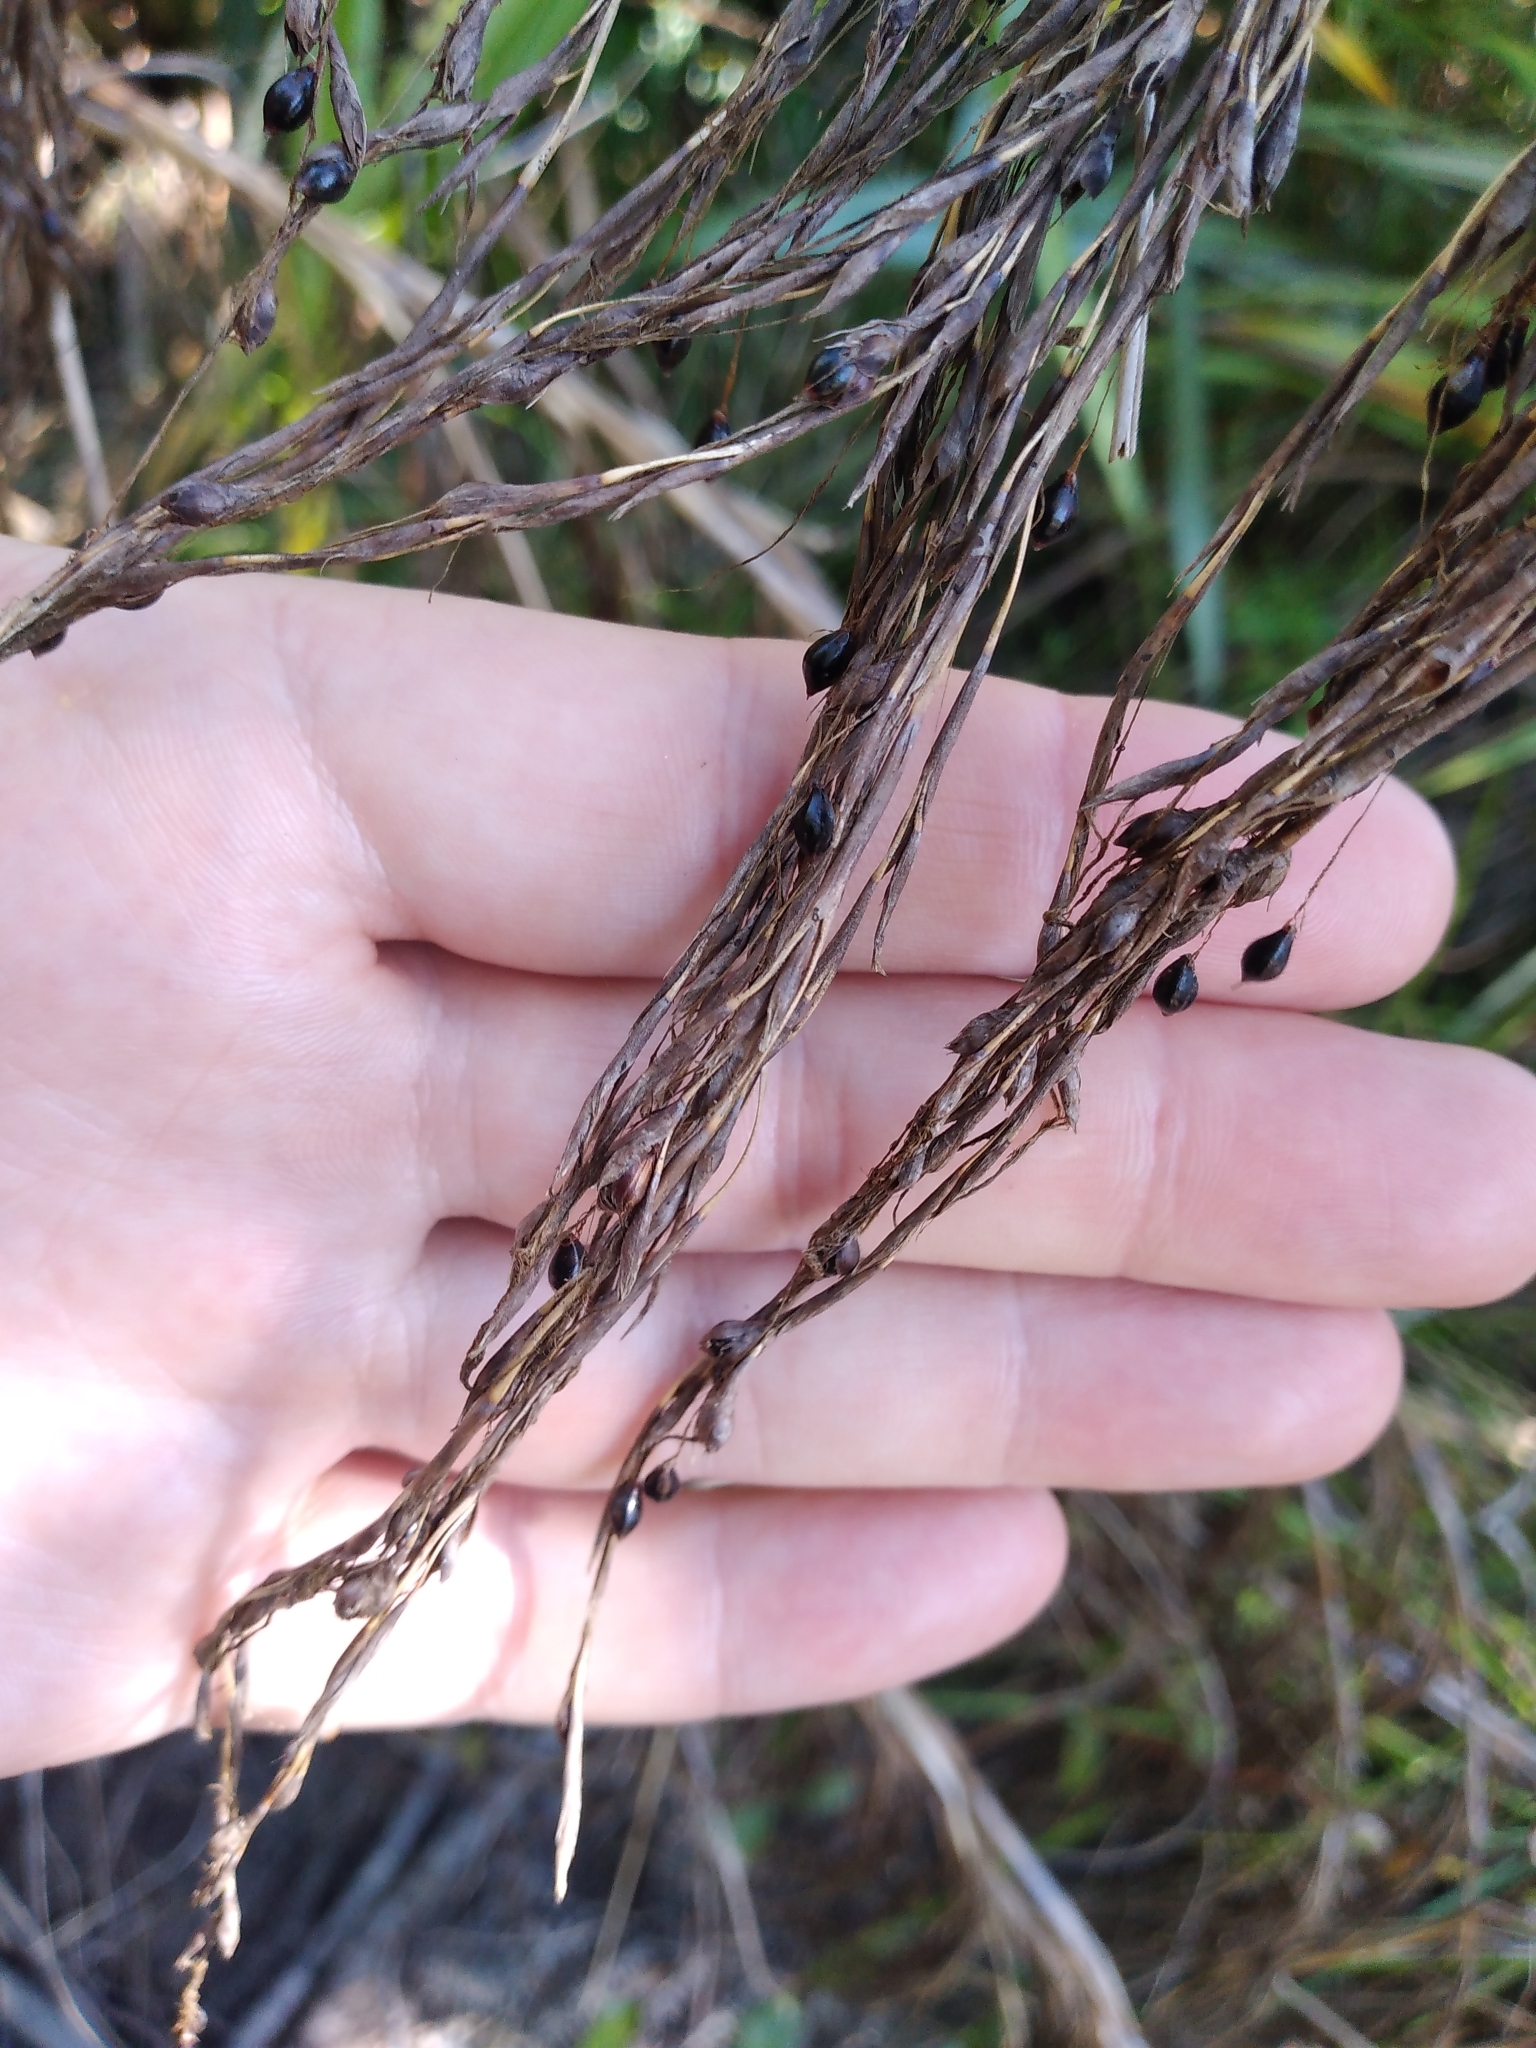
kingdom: Plantae
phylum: Tracheophyta
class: Liliopsida
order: Poales
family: Cyperaceae
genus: Gahnia
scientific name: Gahnia xanthocarpa
